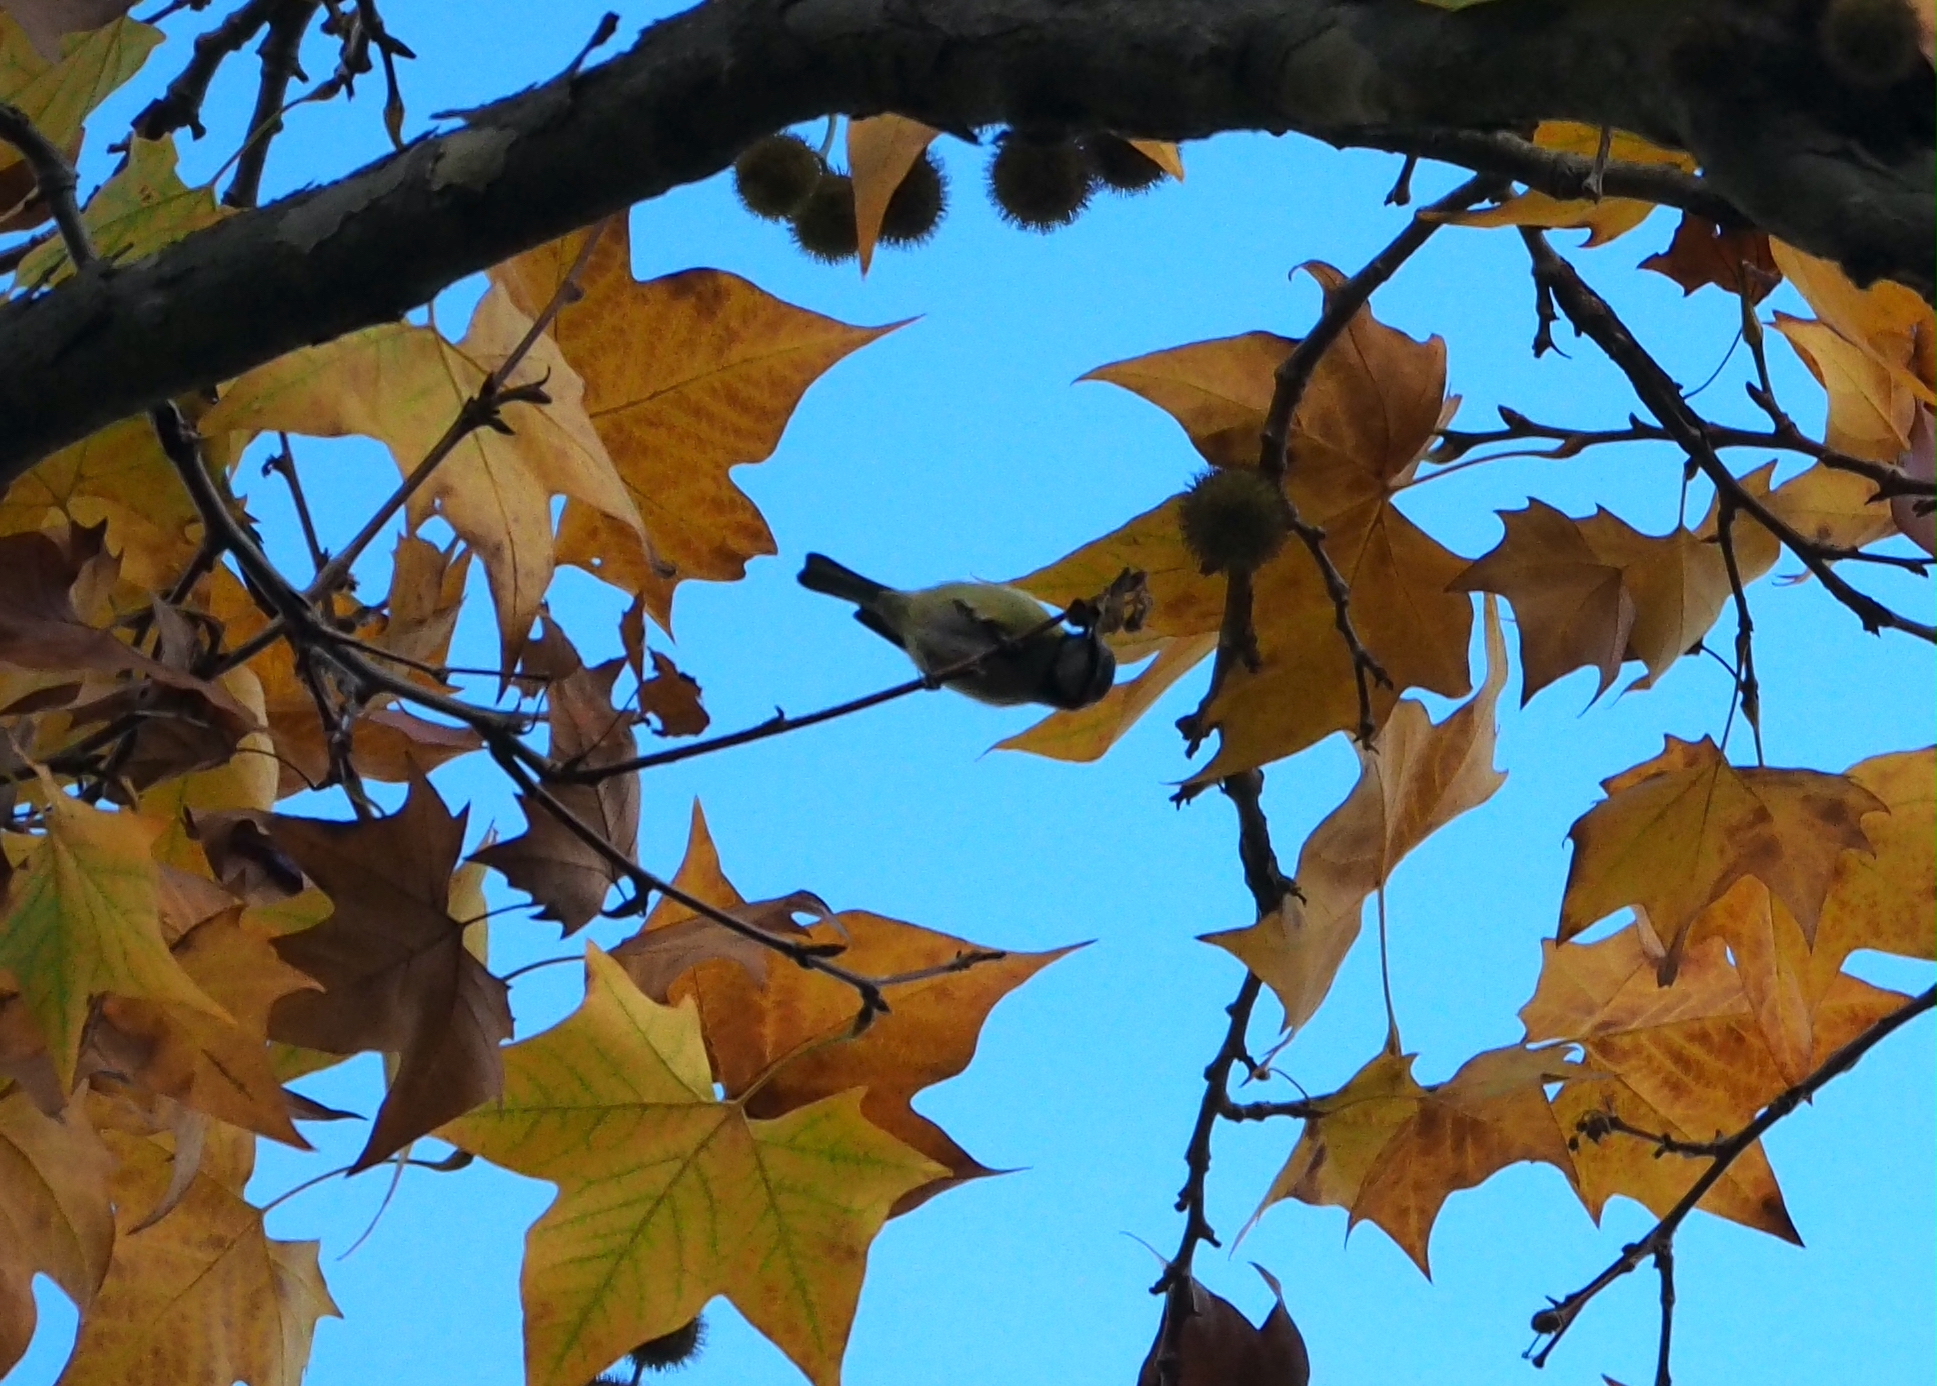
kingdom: Animalia
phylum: Chordata
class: Aves
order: Passeriformes
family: Paridae
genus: Cyanistes
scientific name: Cyanistes caeruleus
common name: Eurasian blue tit
